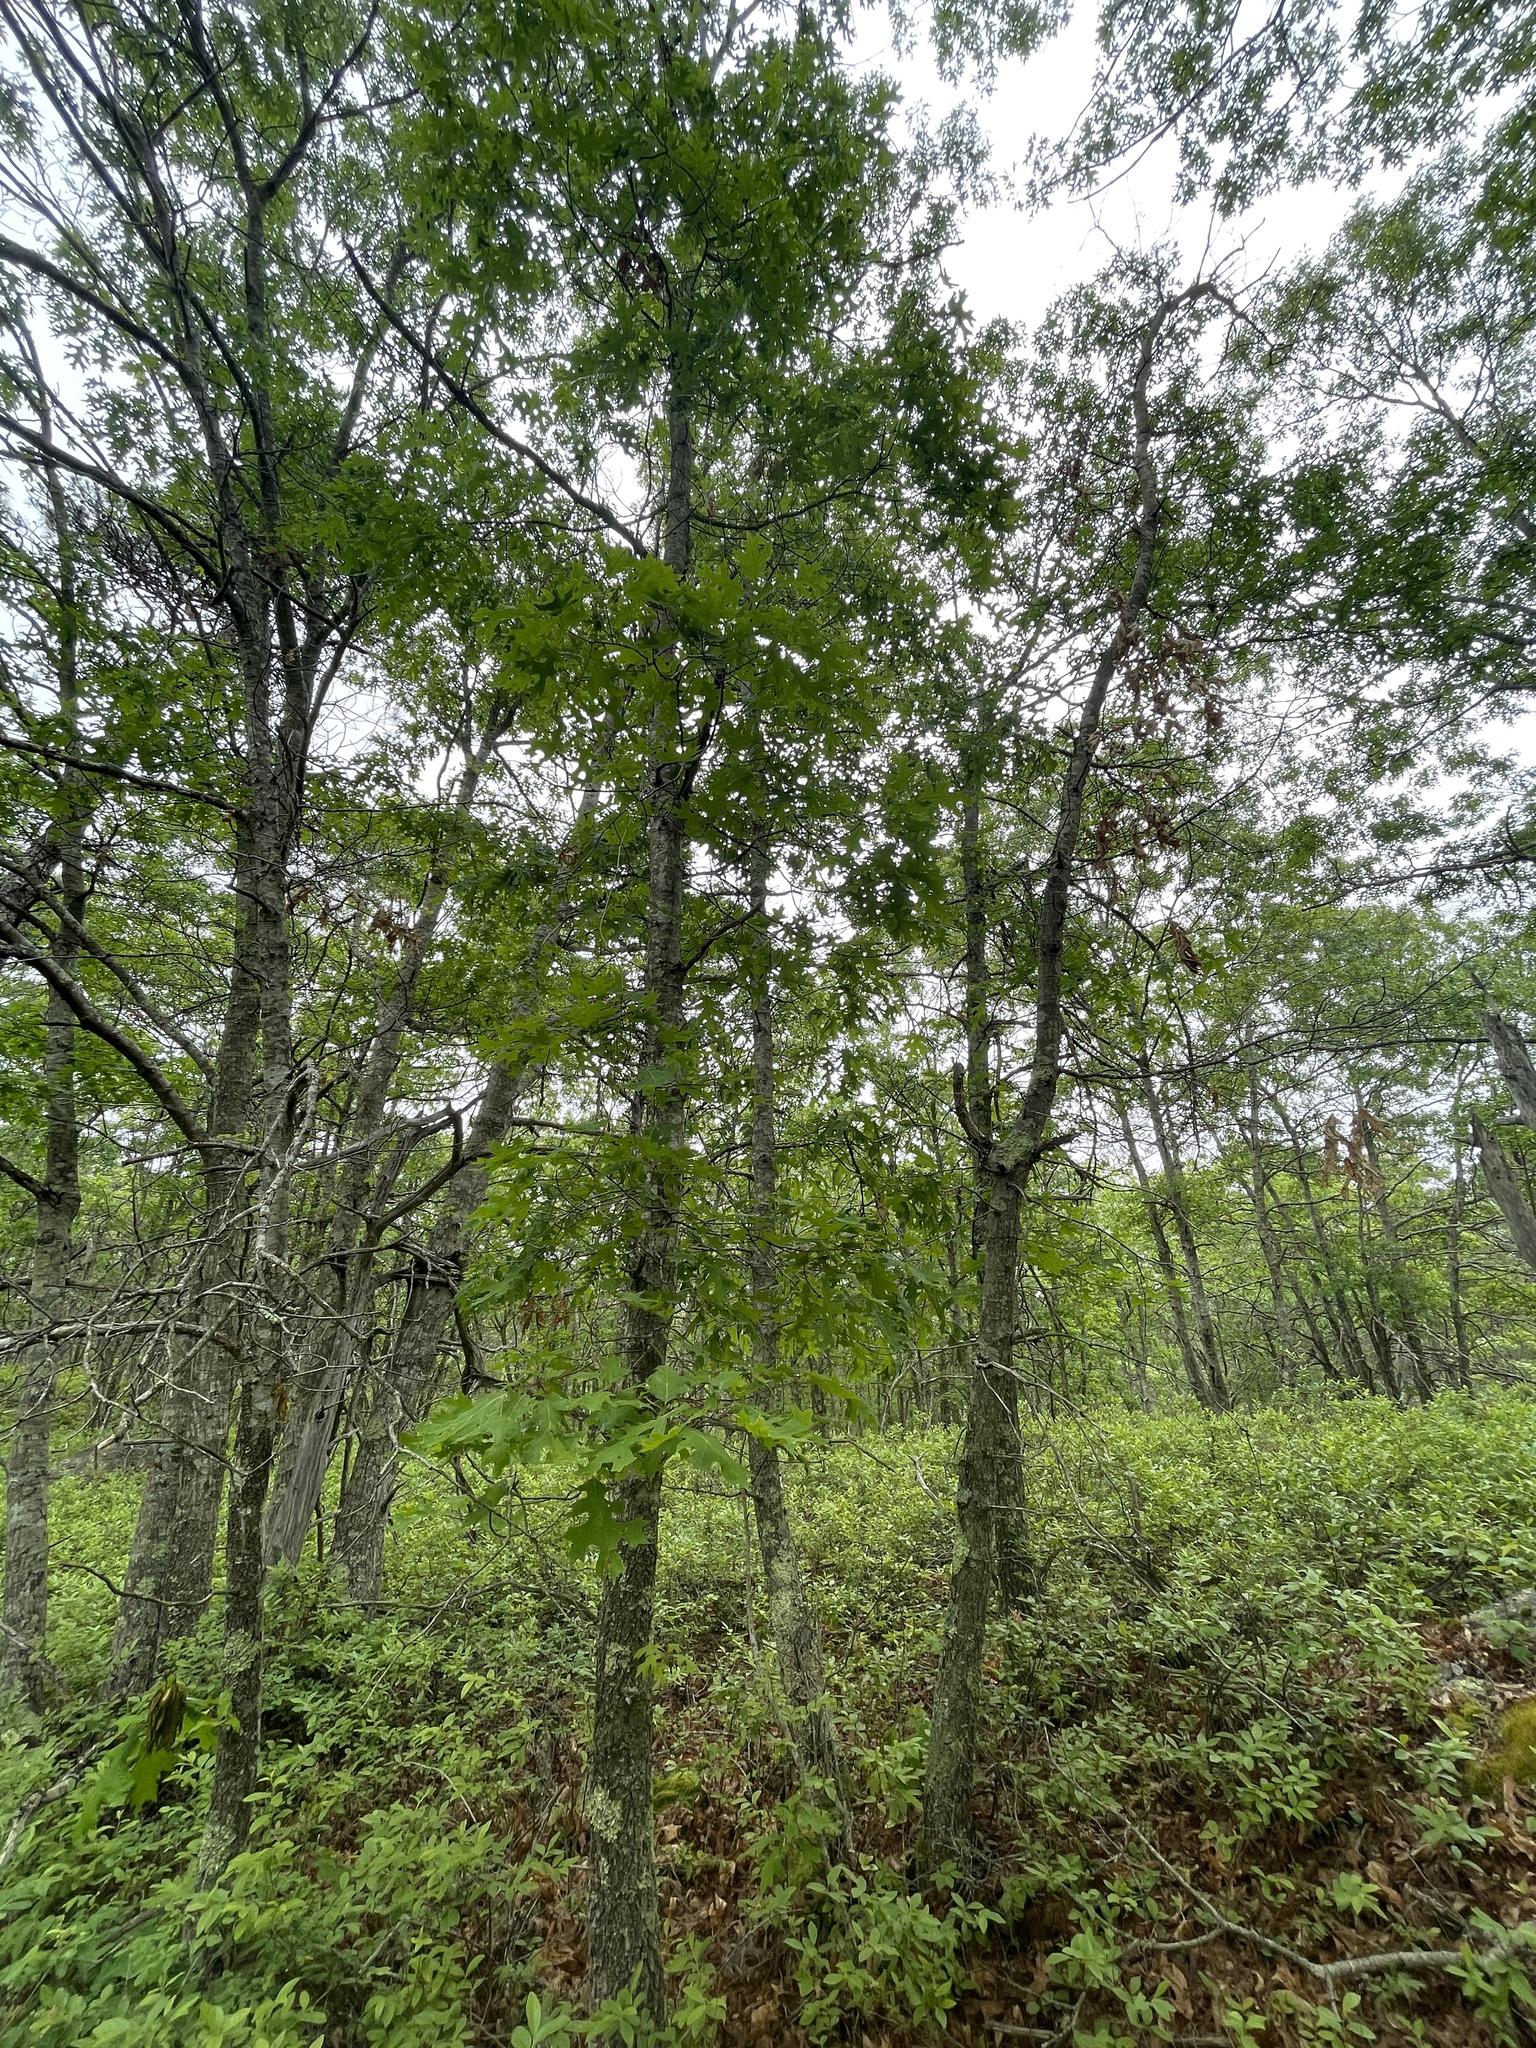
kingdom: Plantae
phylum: Tracheophyta
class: Magnoliopsida
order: Fagales
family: Fagaceae
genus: Quercus
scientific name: Quercus coccinea
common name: Scarlet oak
